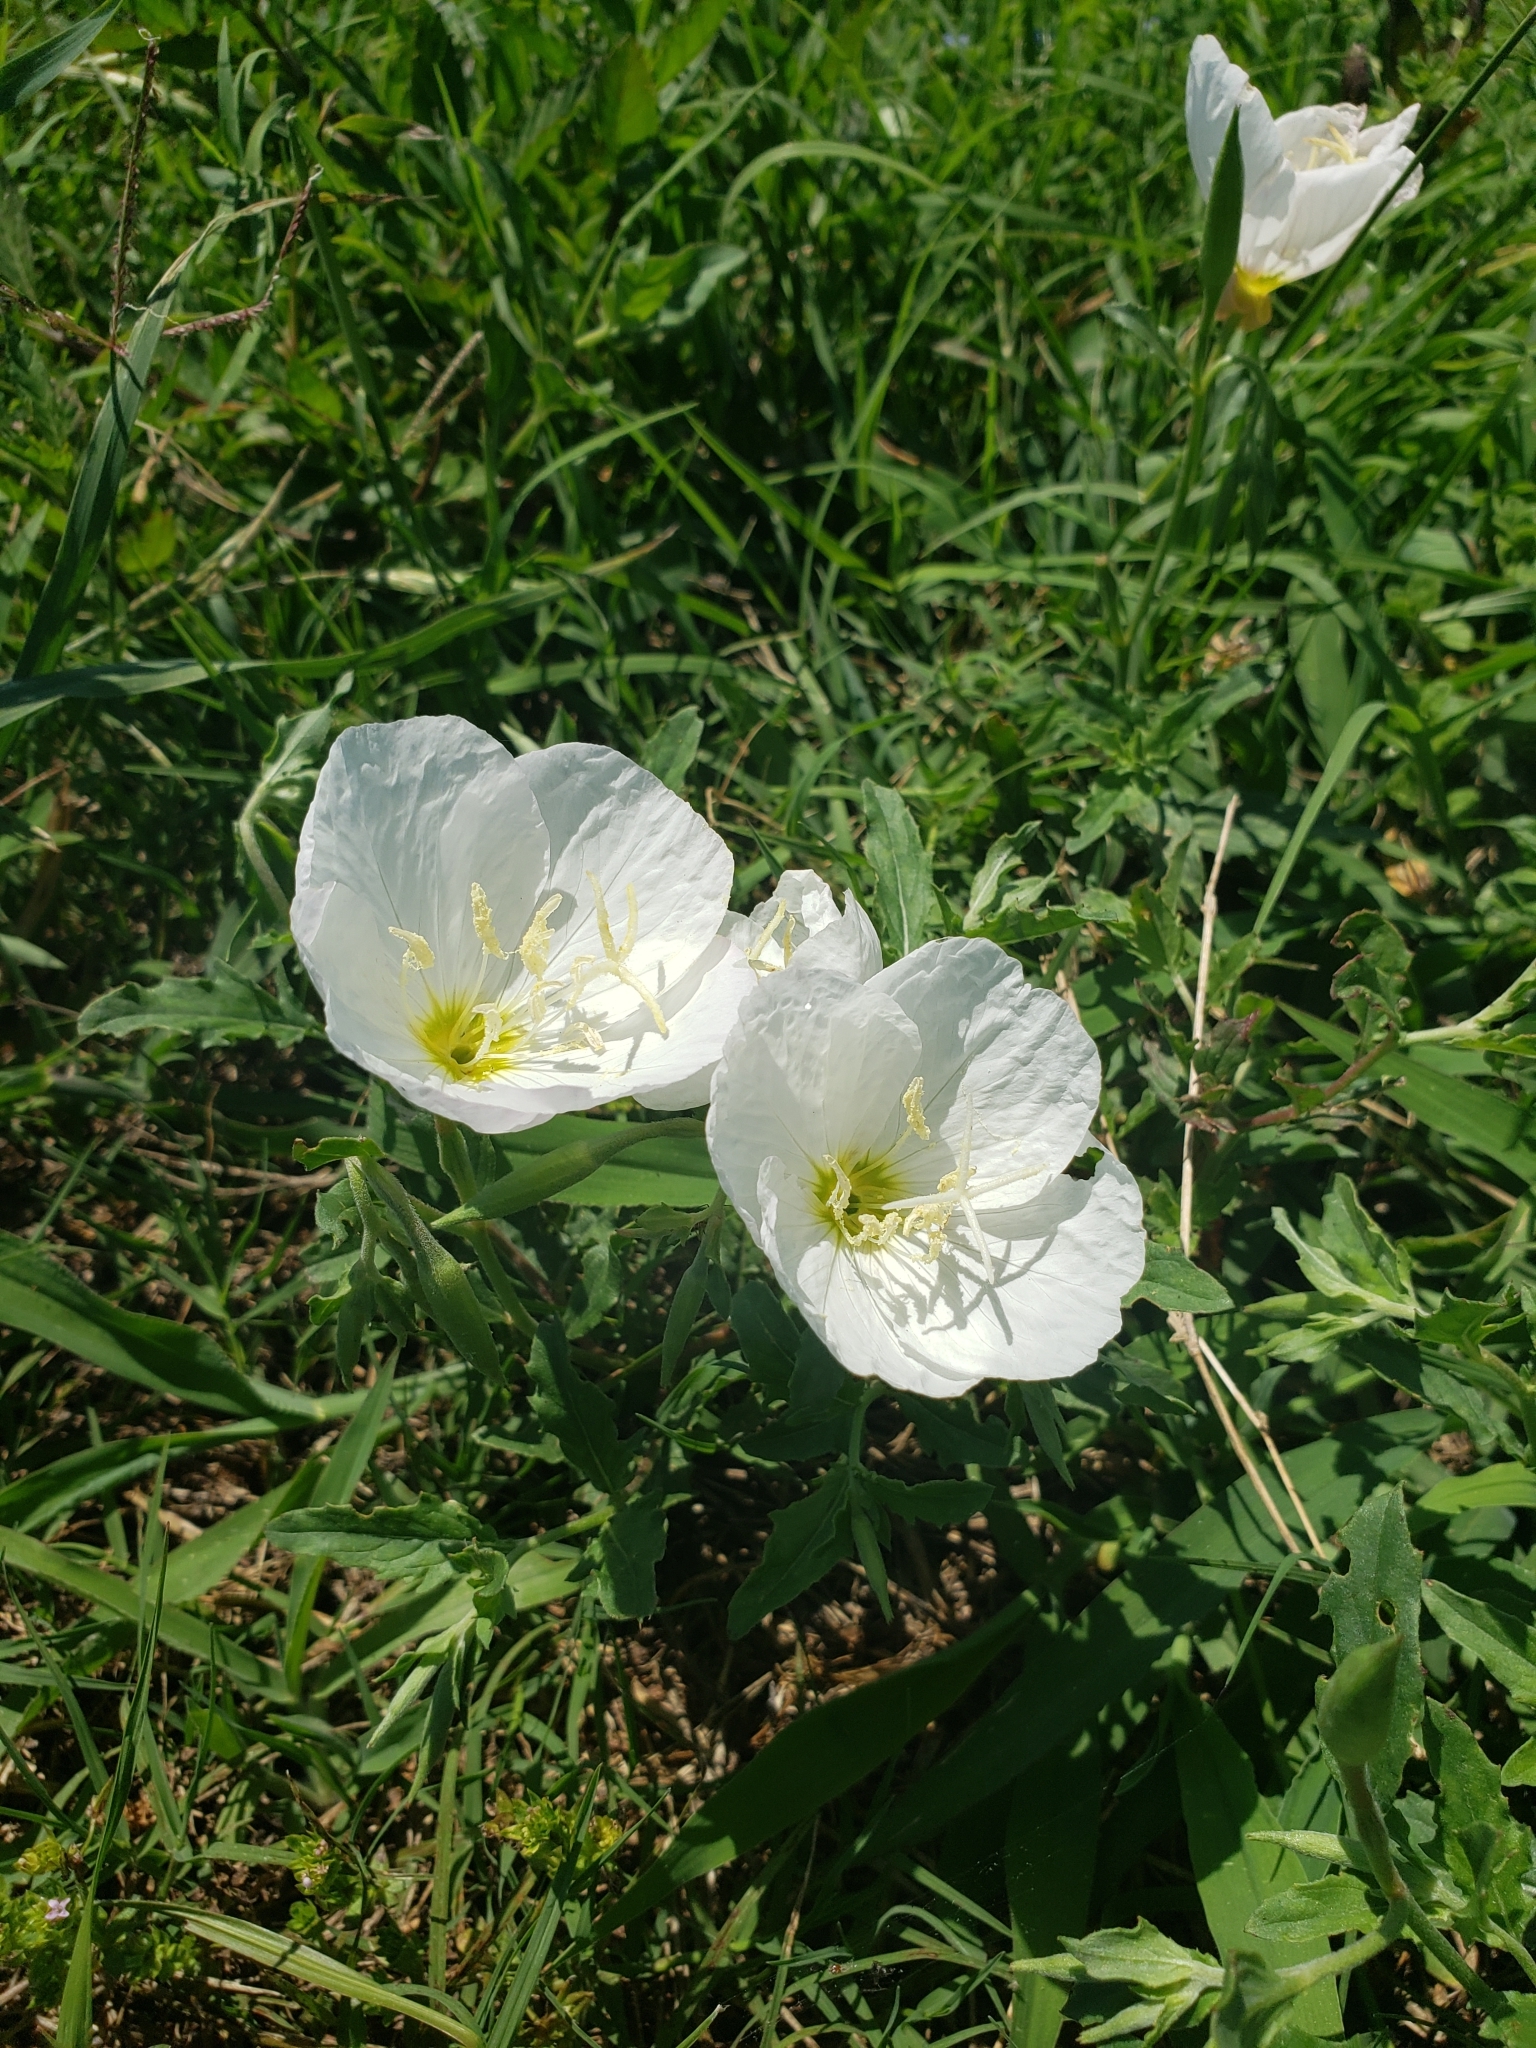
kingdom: Plantae
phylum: Tracheophyta
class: Magnoliopsida
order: Myrtales
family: Onagraceae
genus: Oenothera
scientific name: Oenothera speciosa
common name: White evening-primrose
